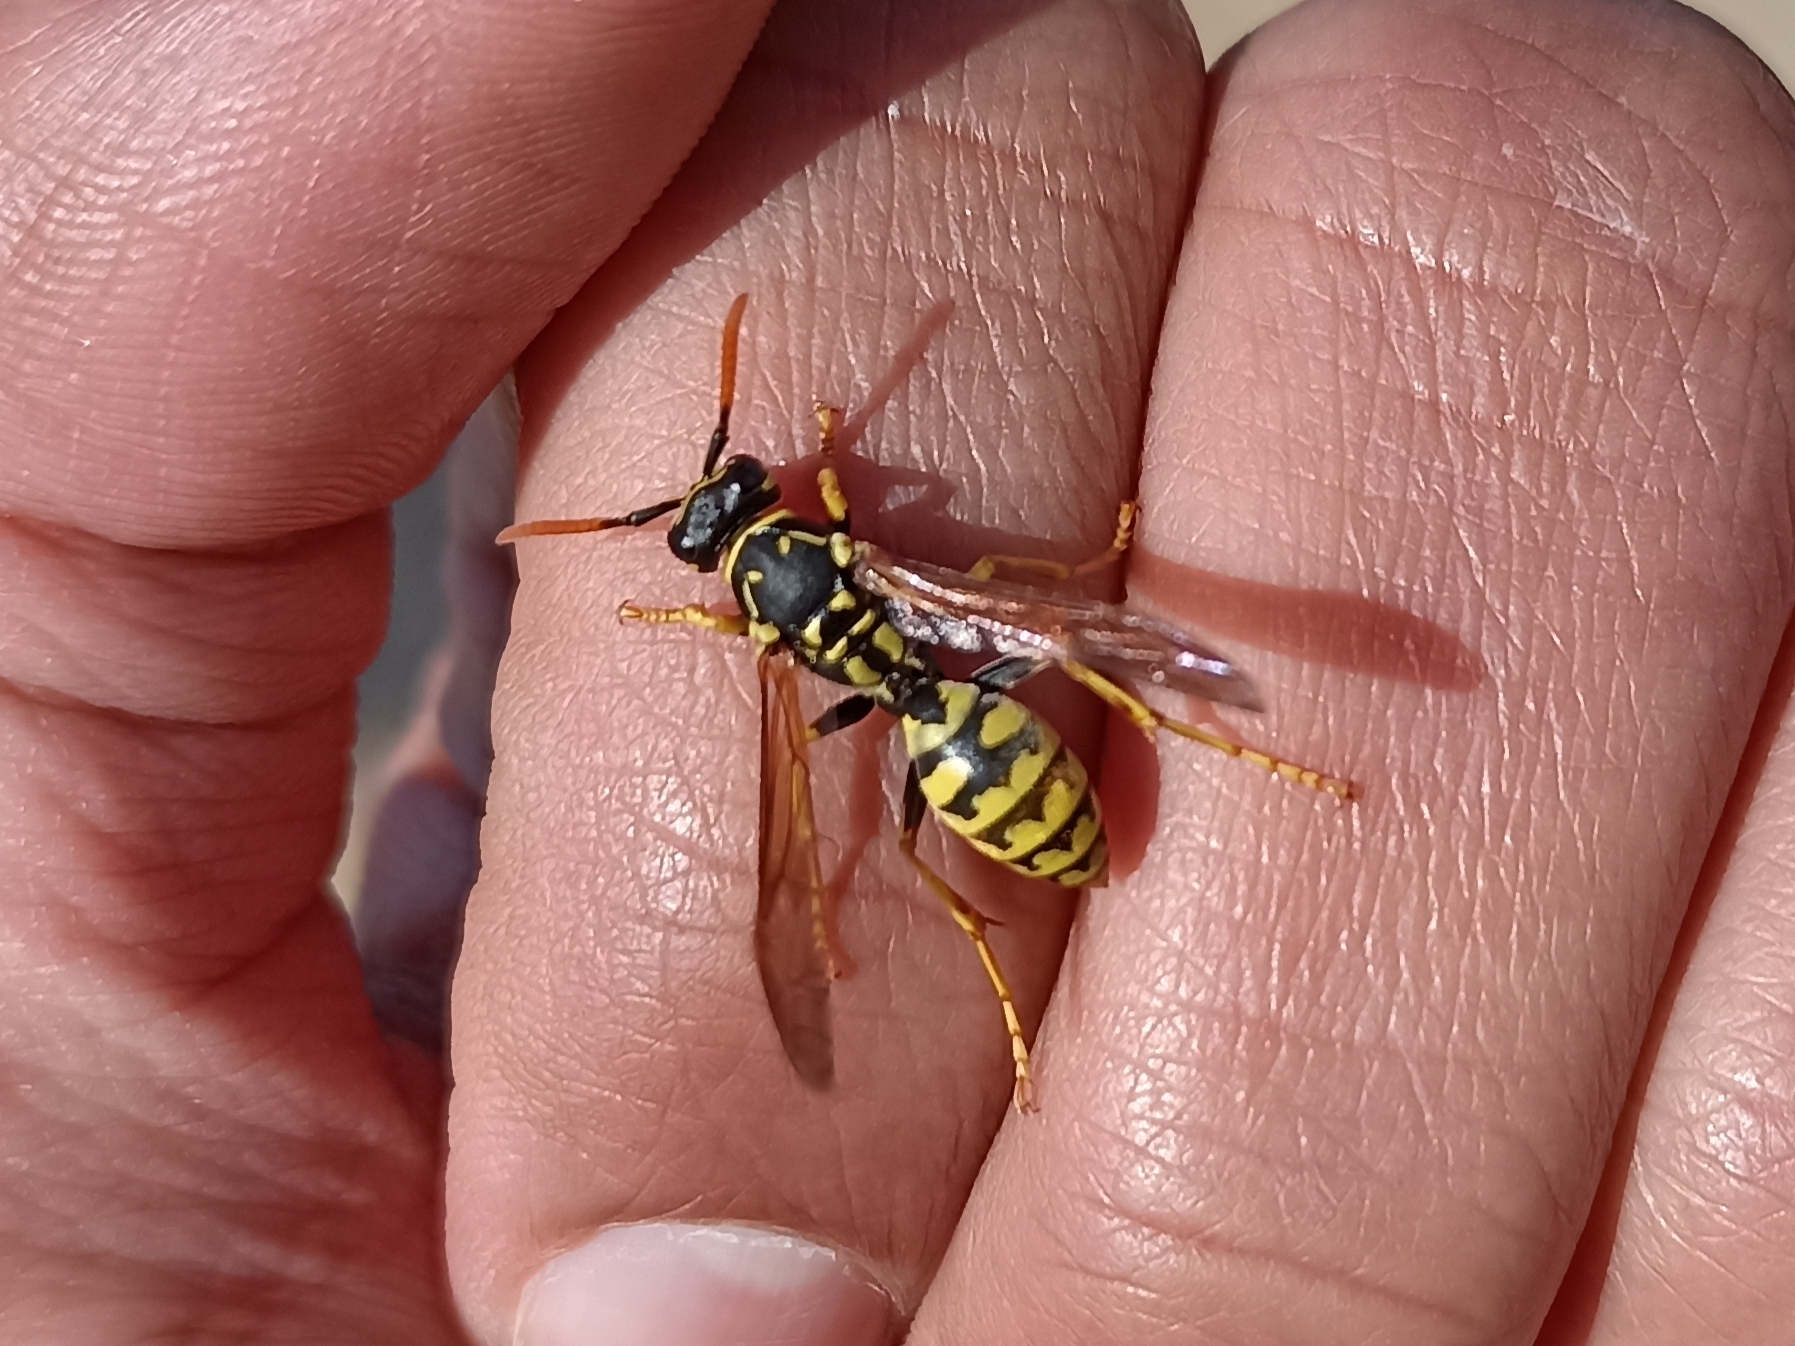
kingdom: Animalia
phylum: Arthropoda
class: Insecta
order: Hymenoptera
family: Eumenidae
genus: Polistes
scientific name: Polistes dominula
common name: Paper wasp
